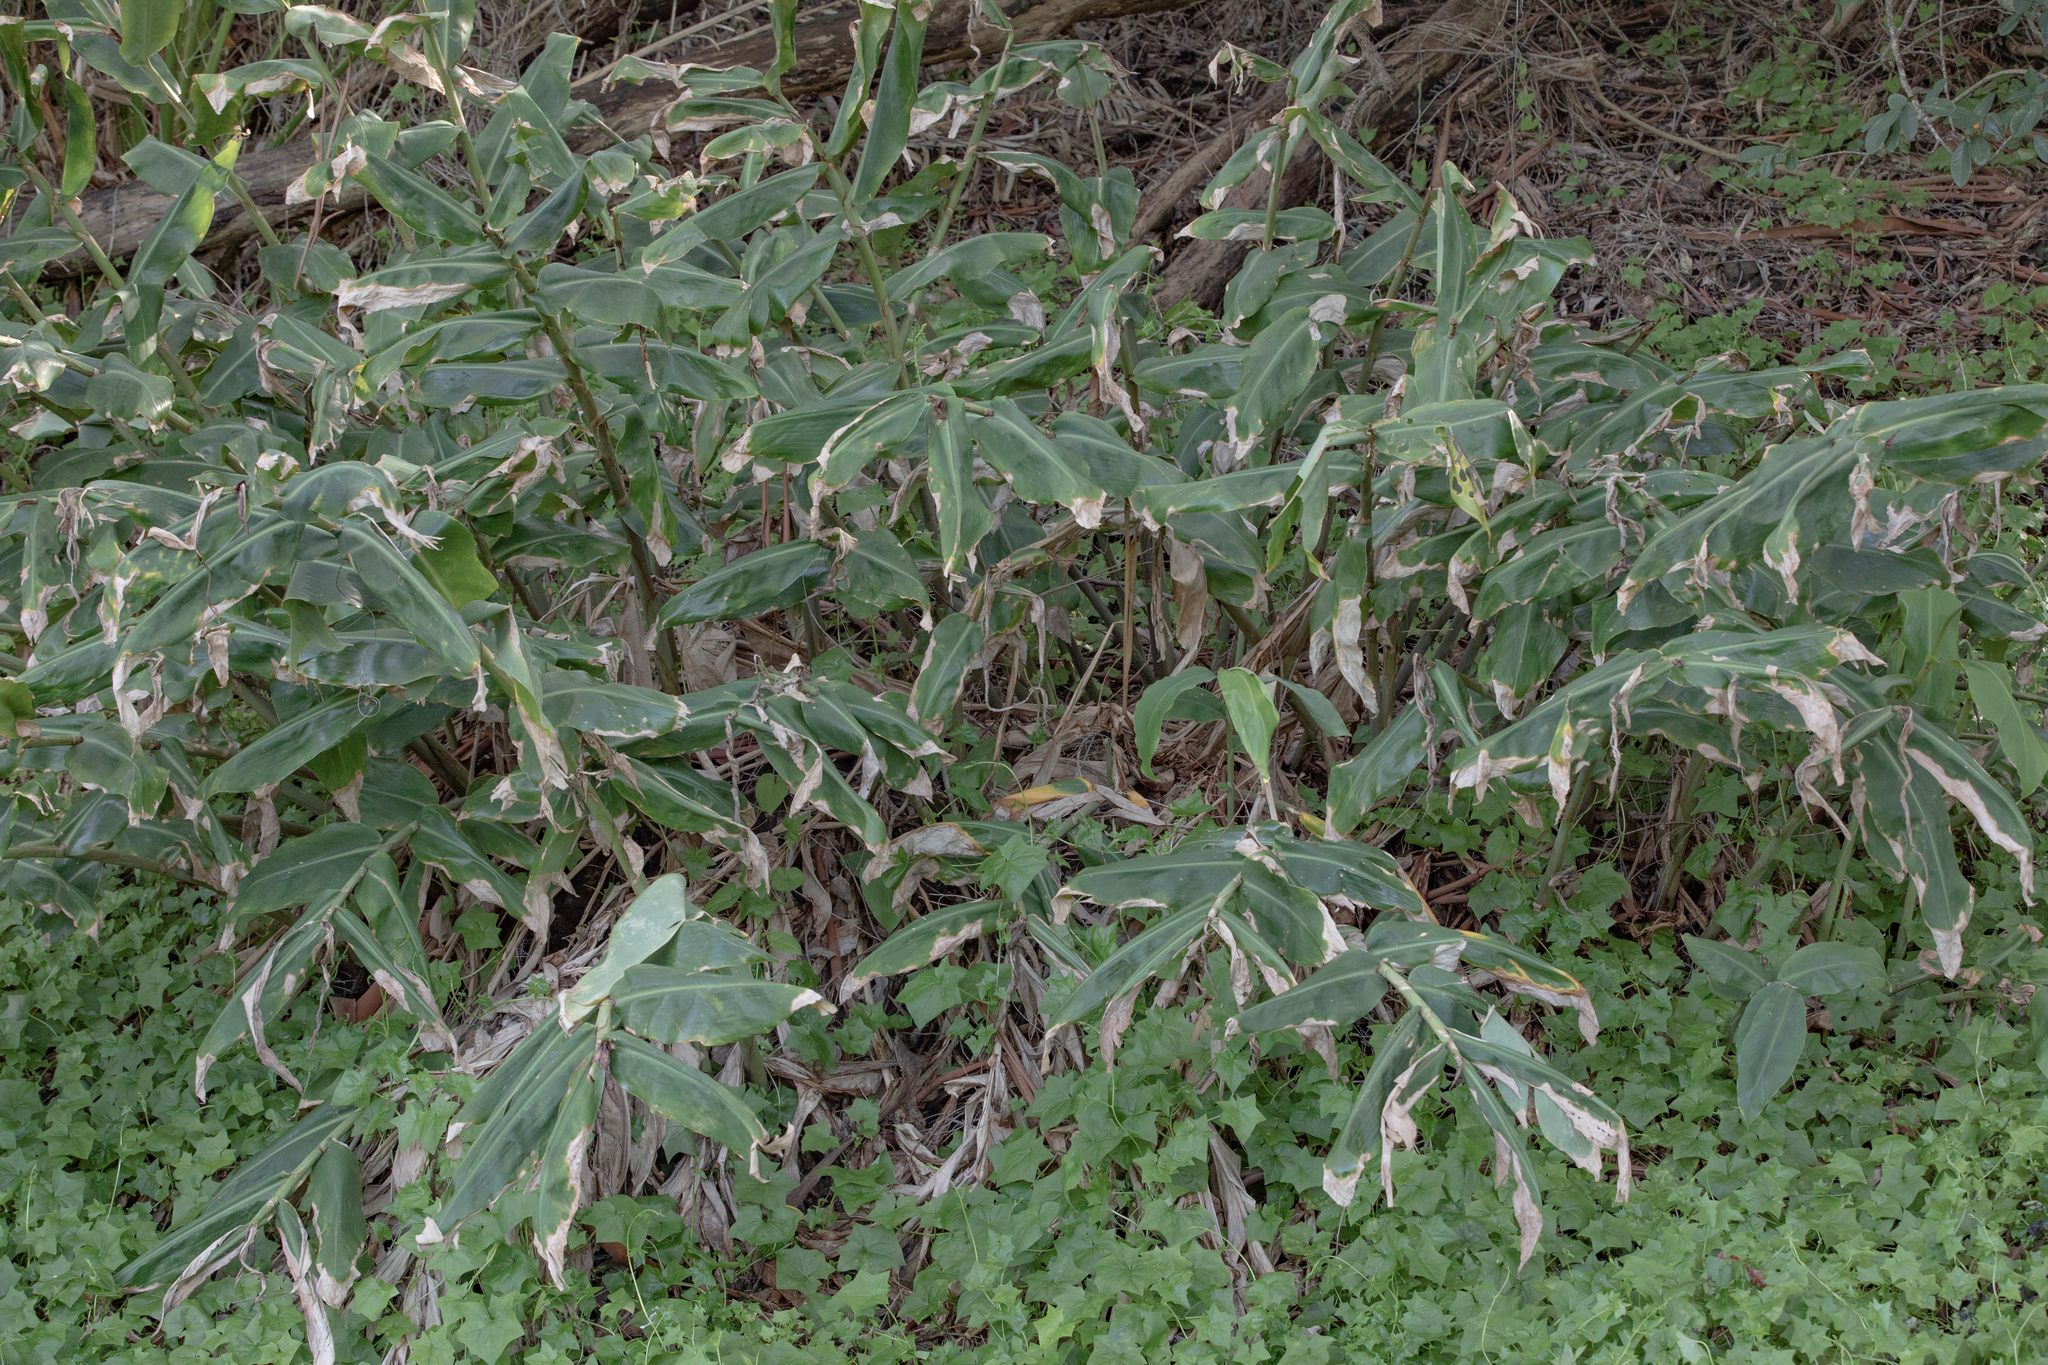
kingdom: Plantae
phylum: Tracheophyta
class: Liliopsida
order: Zingiberales
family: Zingiberaceae
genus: Hedychium
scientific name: Hedychium gardnerianum
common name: Himalayan ginger
